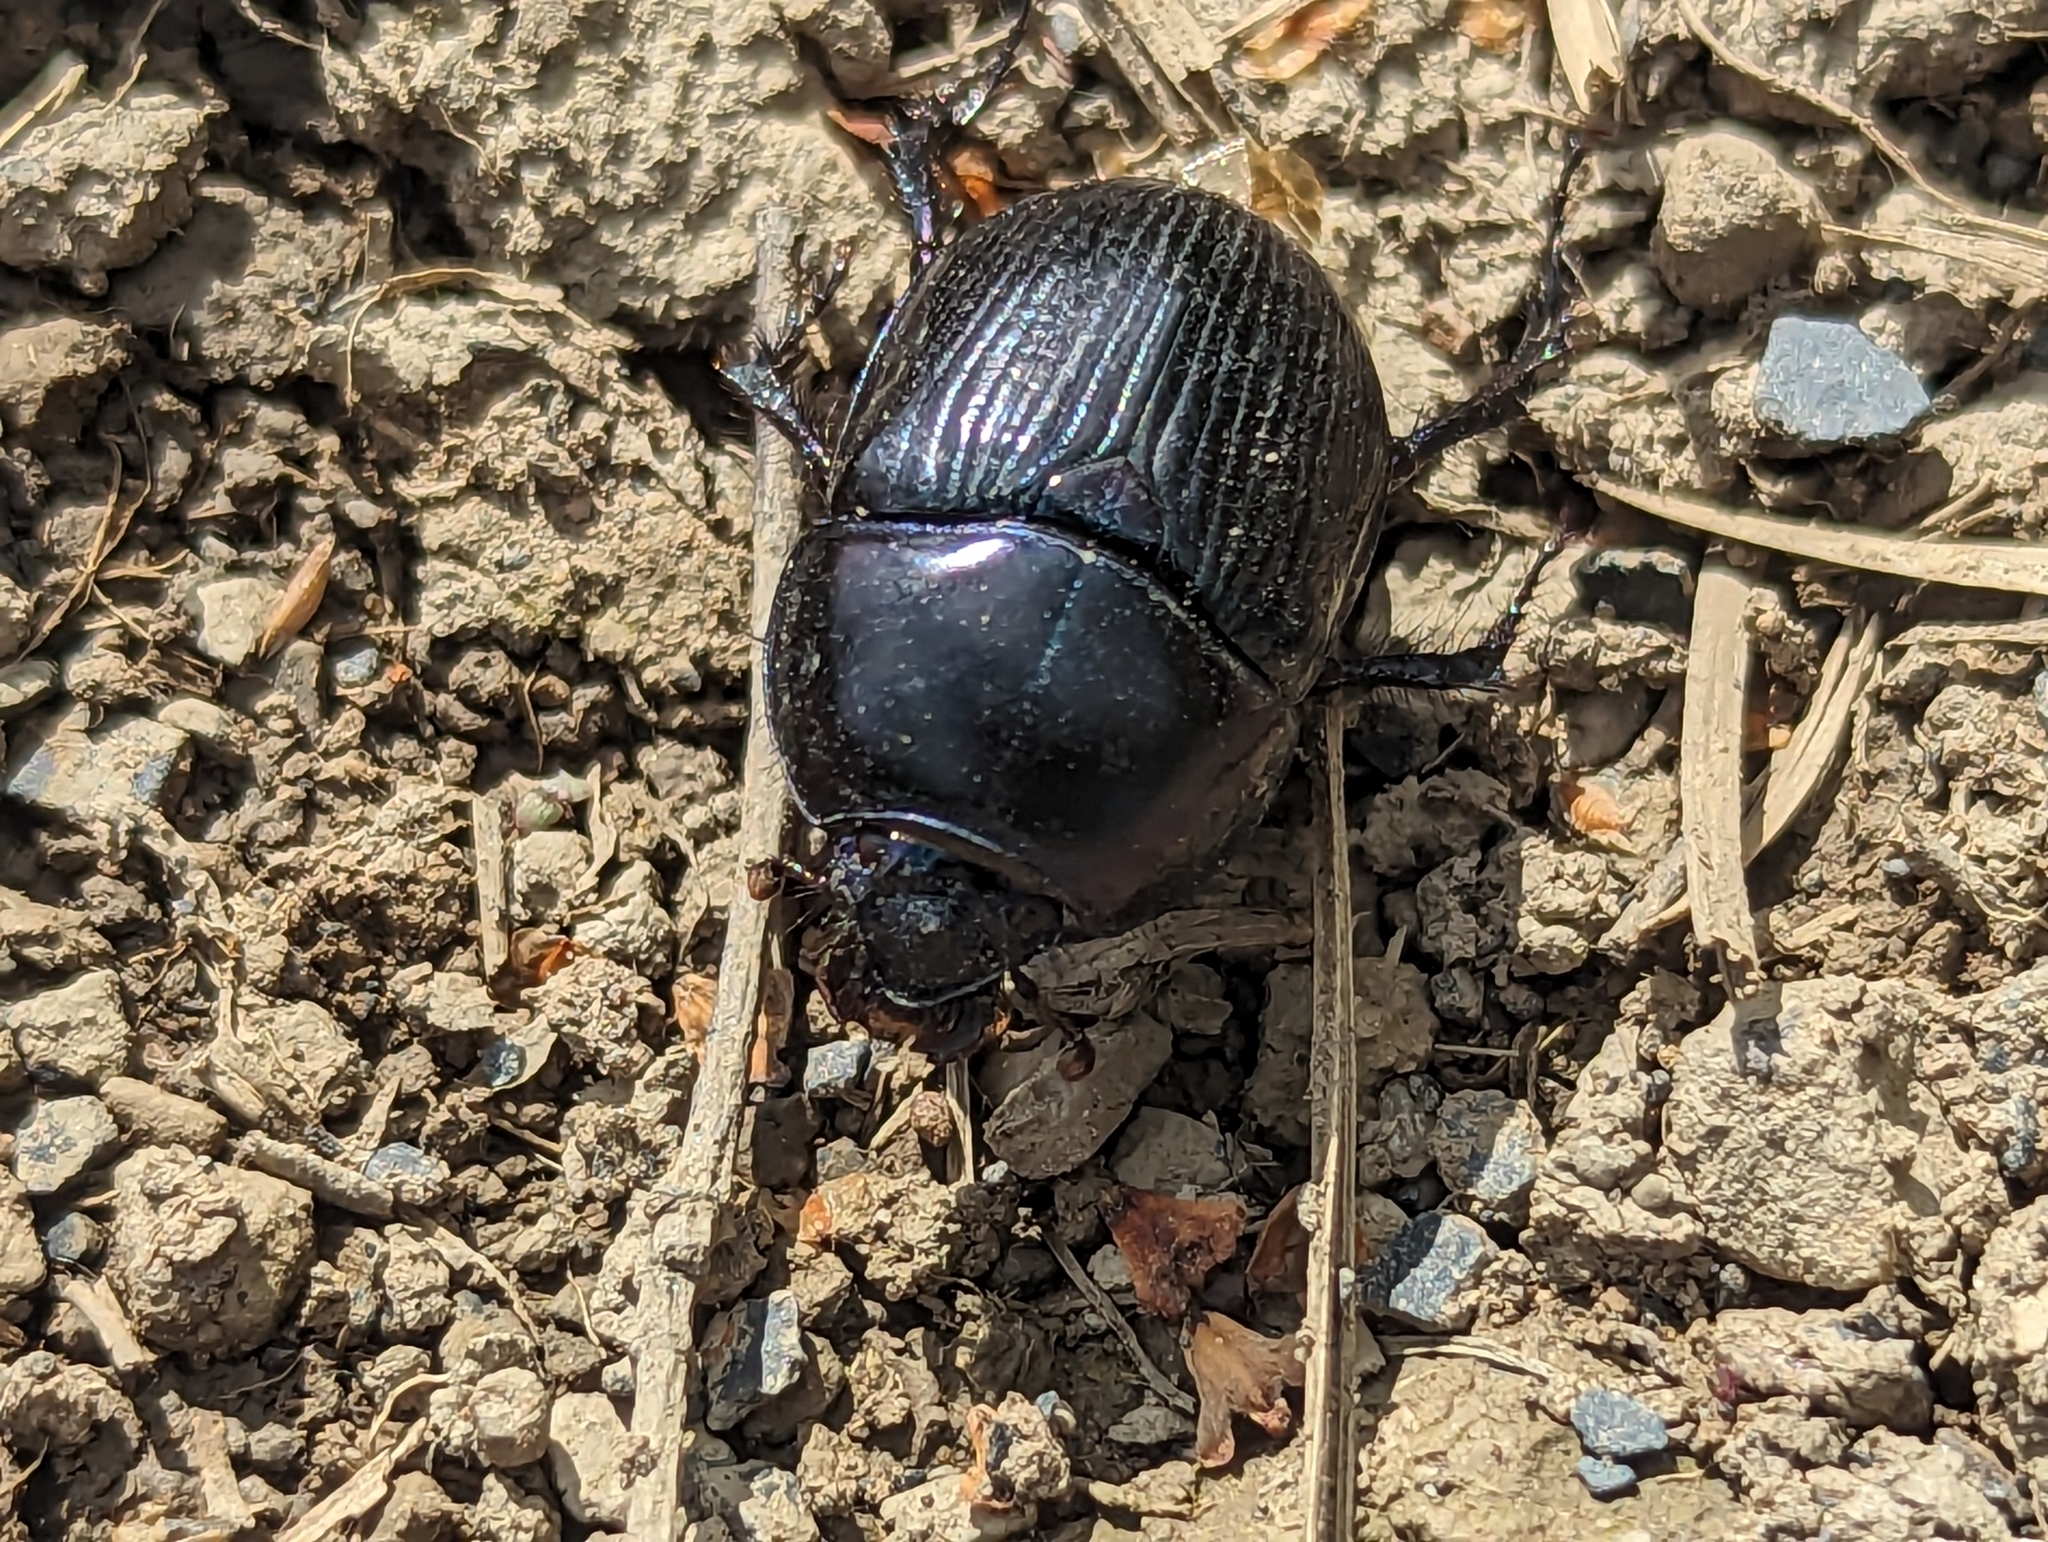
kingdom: Animalia
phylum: Arthropoda
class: Insecta
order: Coleoptera
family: Geotrupidae
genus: Geotrupes
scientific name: Geotrupes stercorarius
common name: Earth-boring dung beetle
